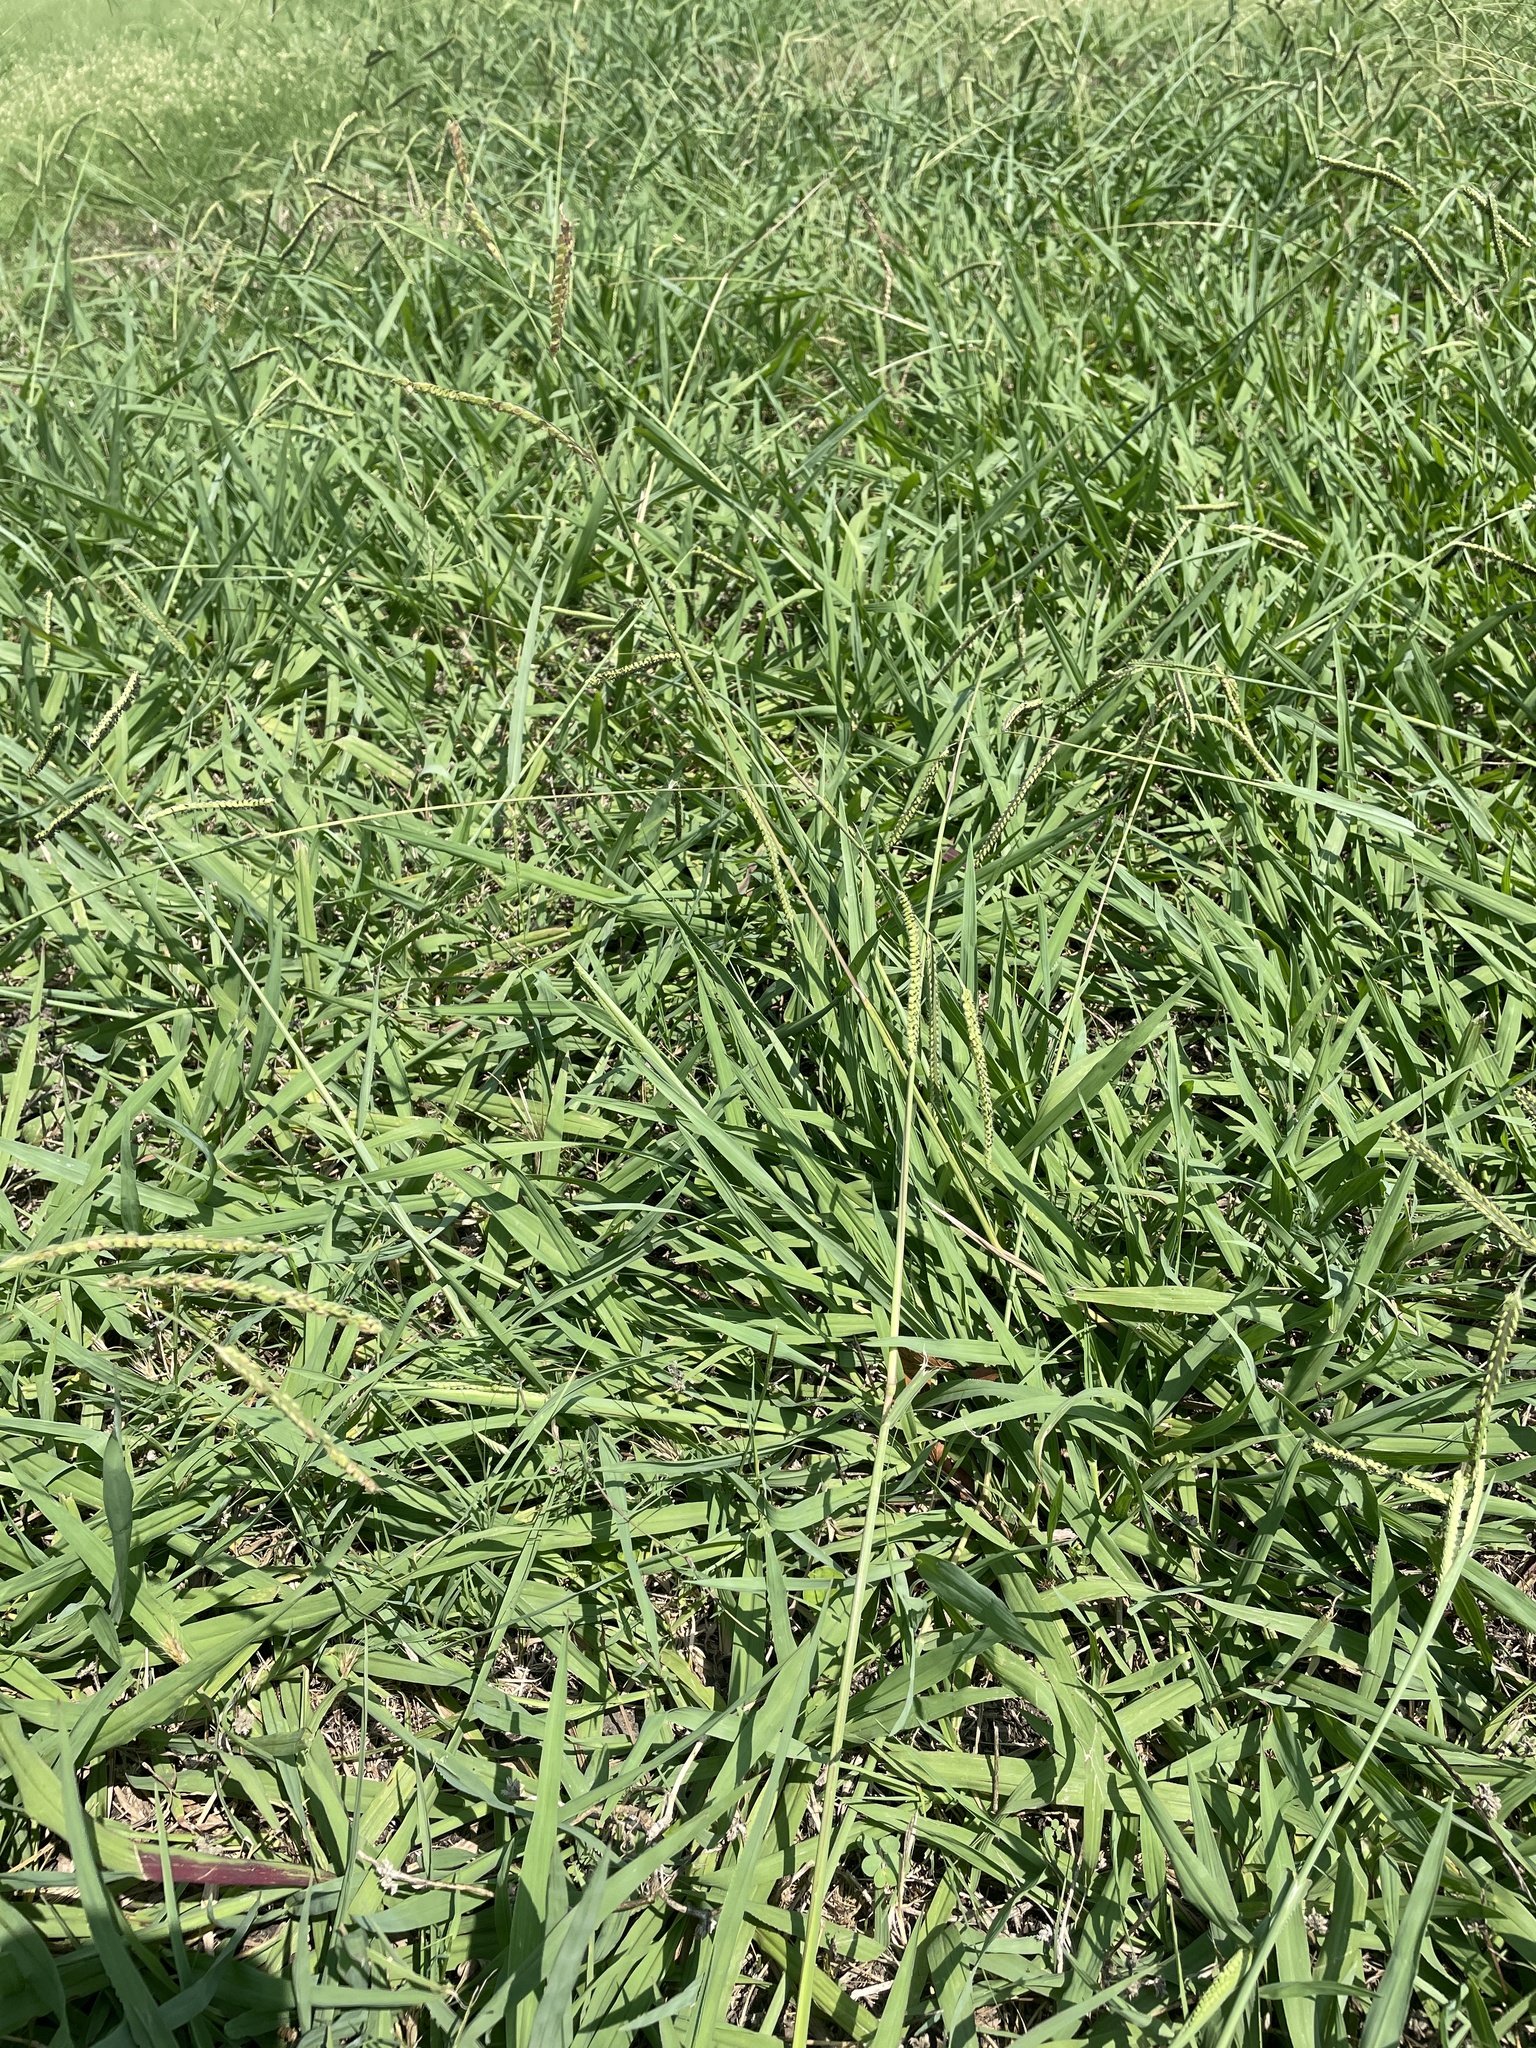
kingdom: Plantae
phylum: Tracheophyta
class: Liliopsida
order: Poales
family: Poaceae
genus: Paspalum
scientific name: Paspalum dilatatum
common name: Dallisgrass
